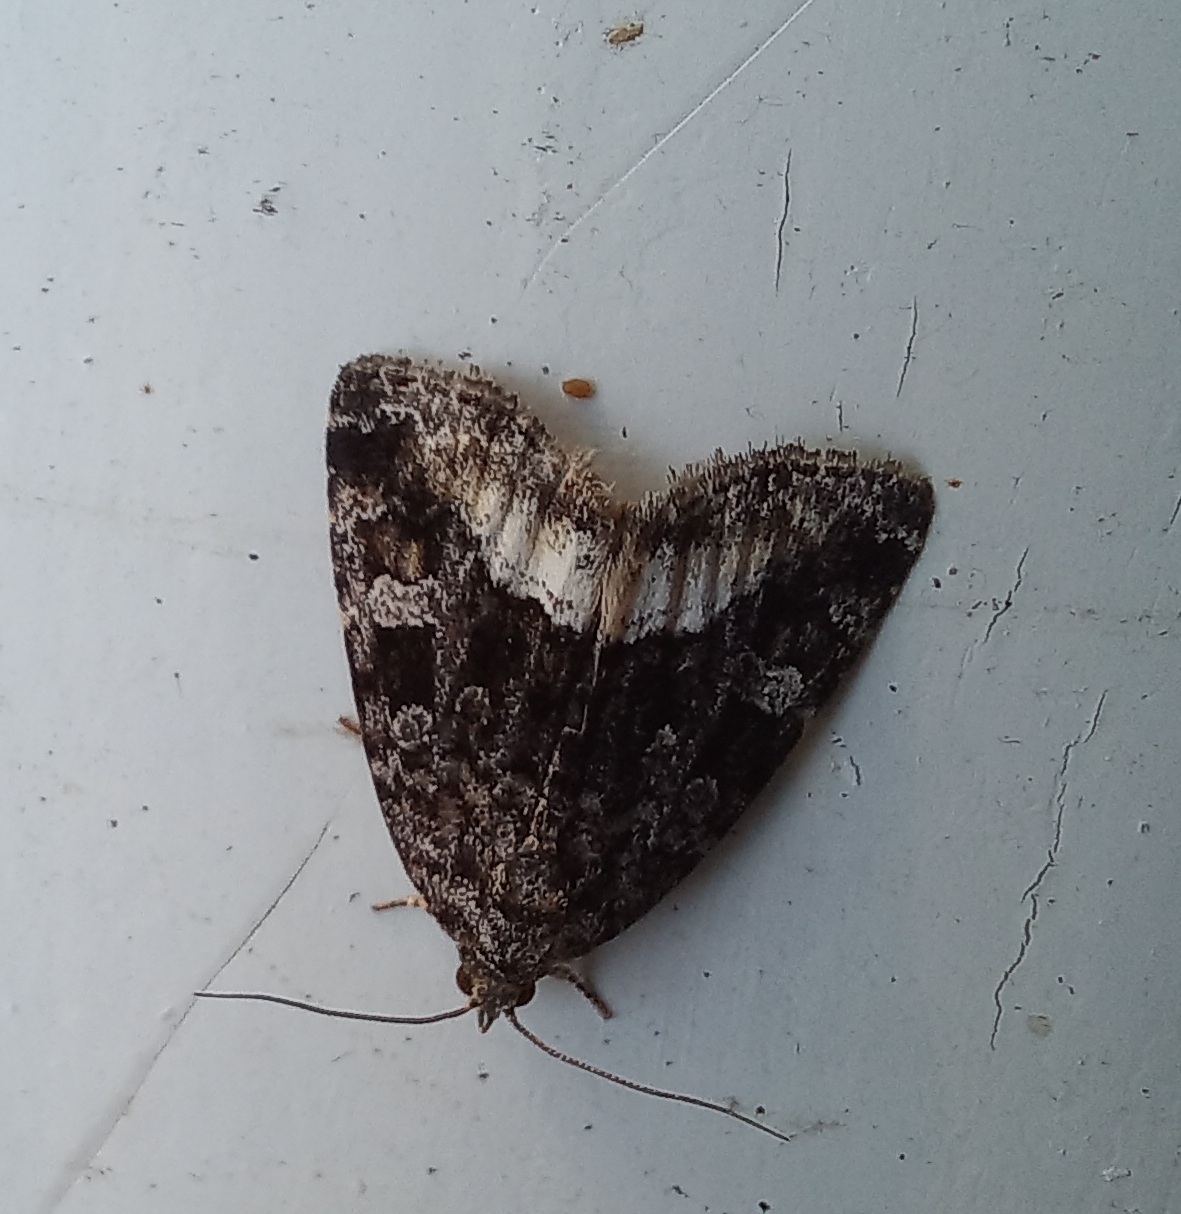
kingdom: Animalia
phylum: Arthropoda
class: Insecta
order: Lepidoptera
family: Noctuidae
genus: Deltote
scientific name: Deltote pygarga
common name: Marbled white spot
